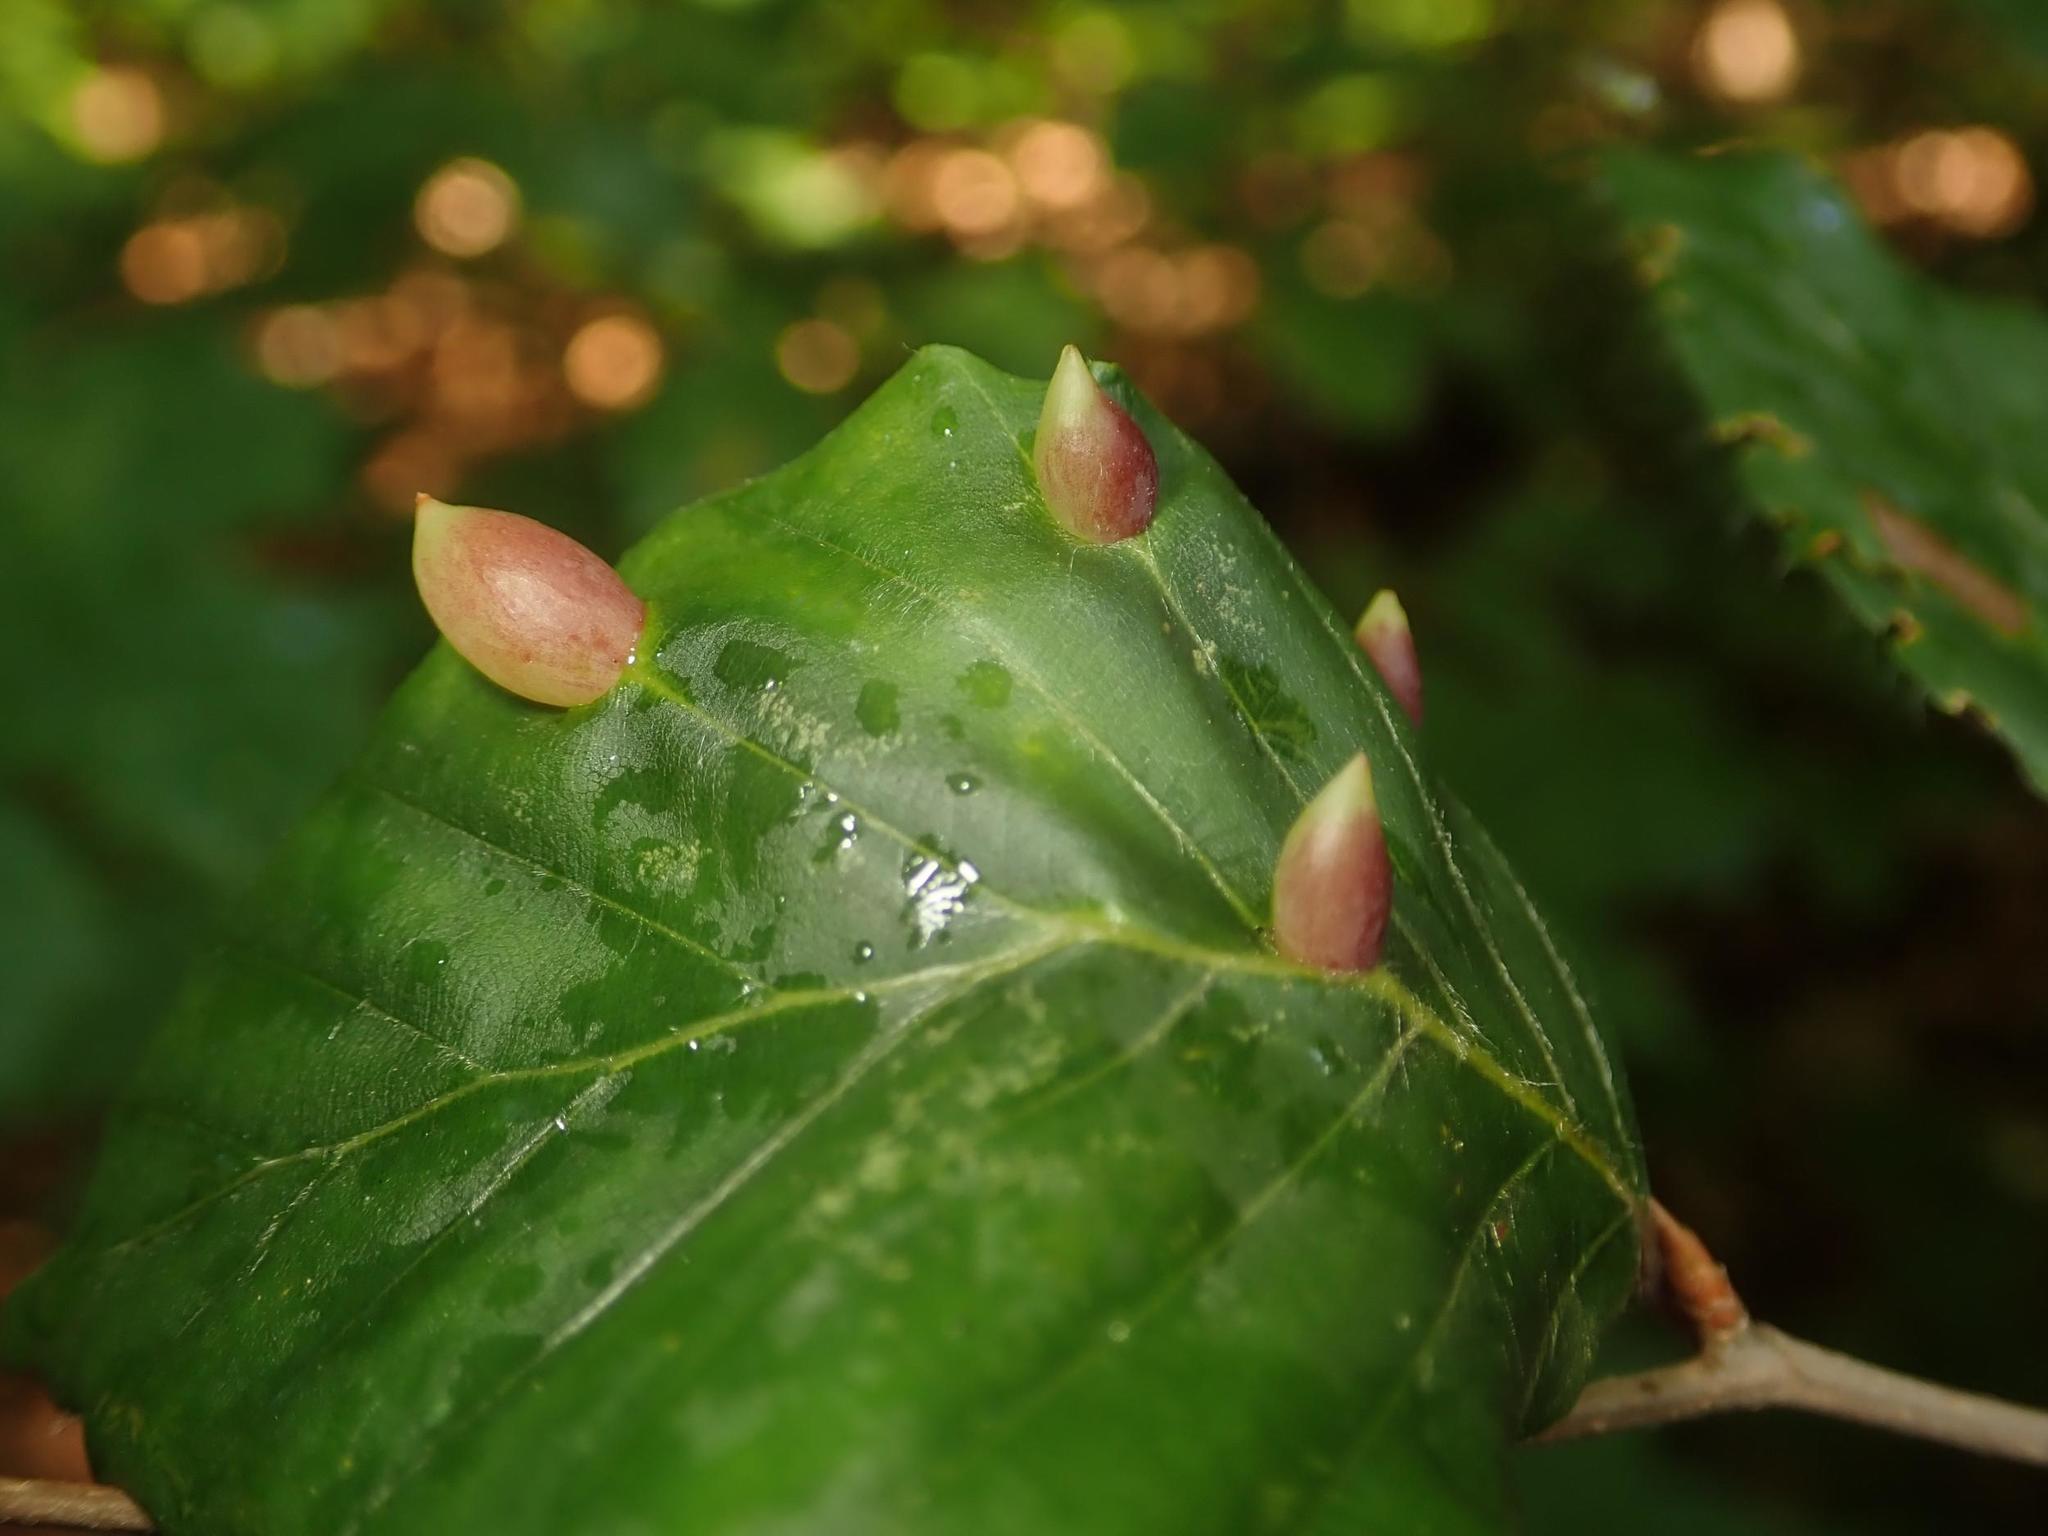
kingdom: Animalia
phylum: Arthropoda
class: Insecta
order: Diptera
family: Cecidomyiidae
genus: Mikiola
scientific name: Mikiola fagi
